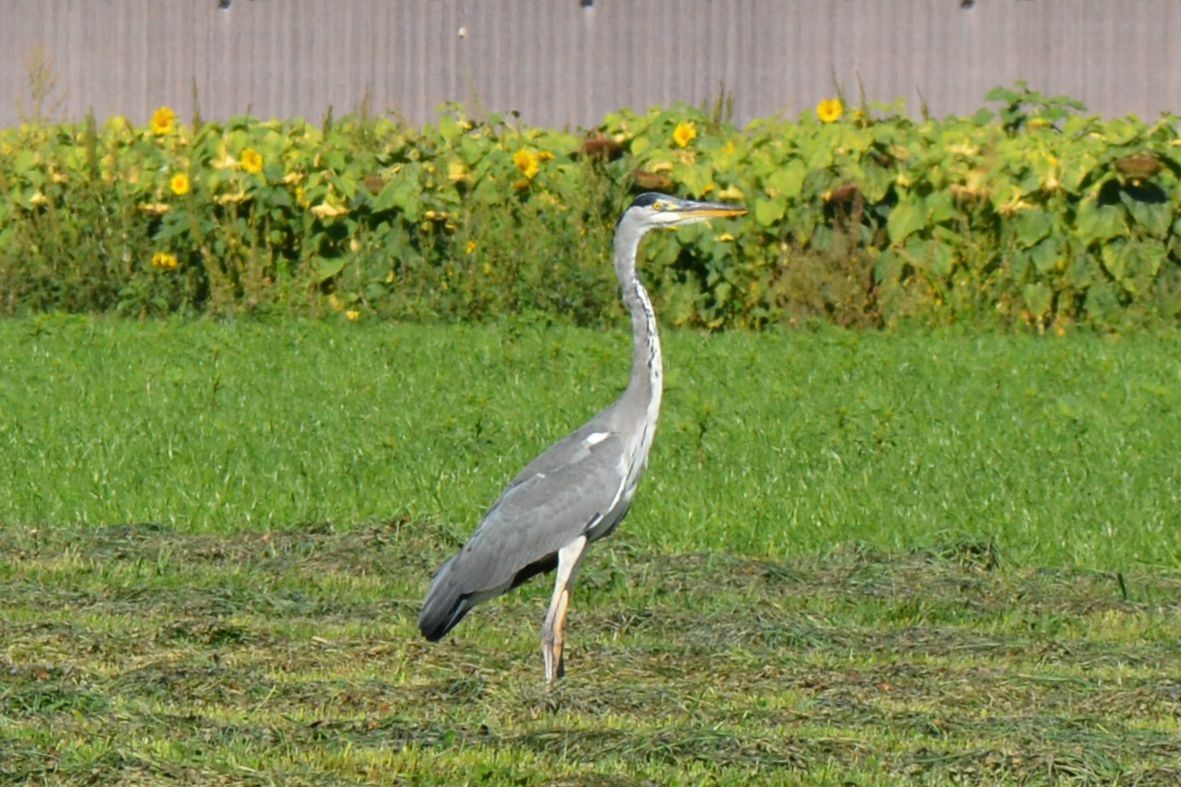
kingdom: Animalia
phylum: Chordata
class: Aves
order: Pelecaniformes
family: Ardeidae
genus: Ardea
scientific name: Ardea cinerea
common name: Grey heron
